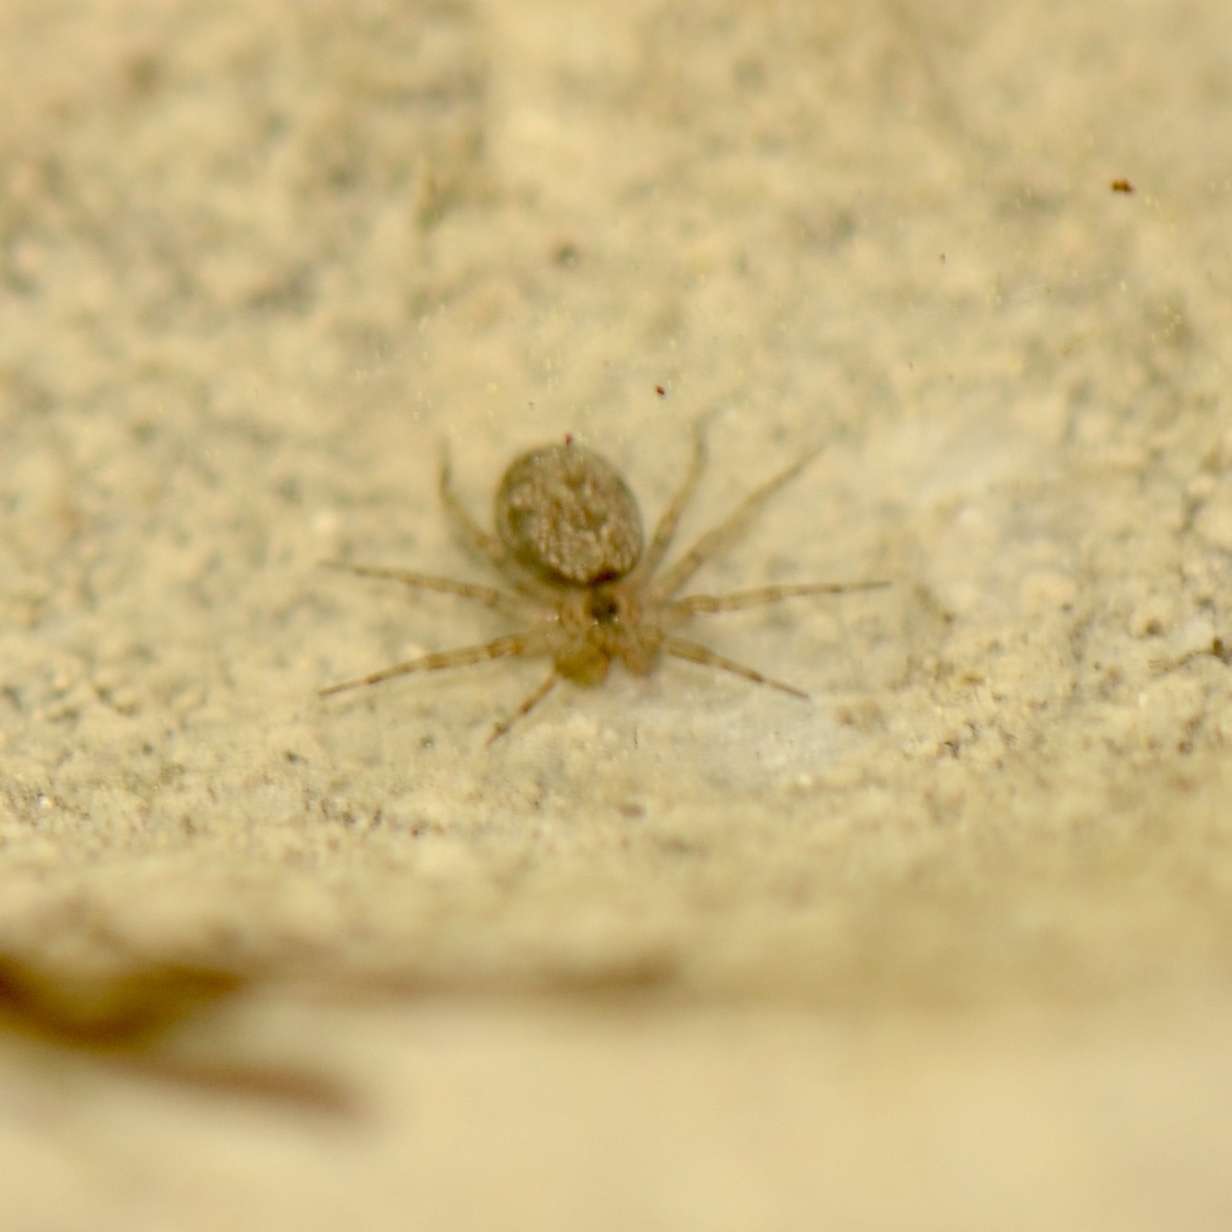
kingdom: Animalia
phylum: Arthropoda
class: Arachnida
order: Araneae
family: Oecobiidae
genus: Oecobius
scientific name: Oecobius navus
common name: Flatmesh weaver
